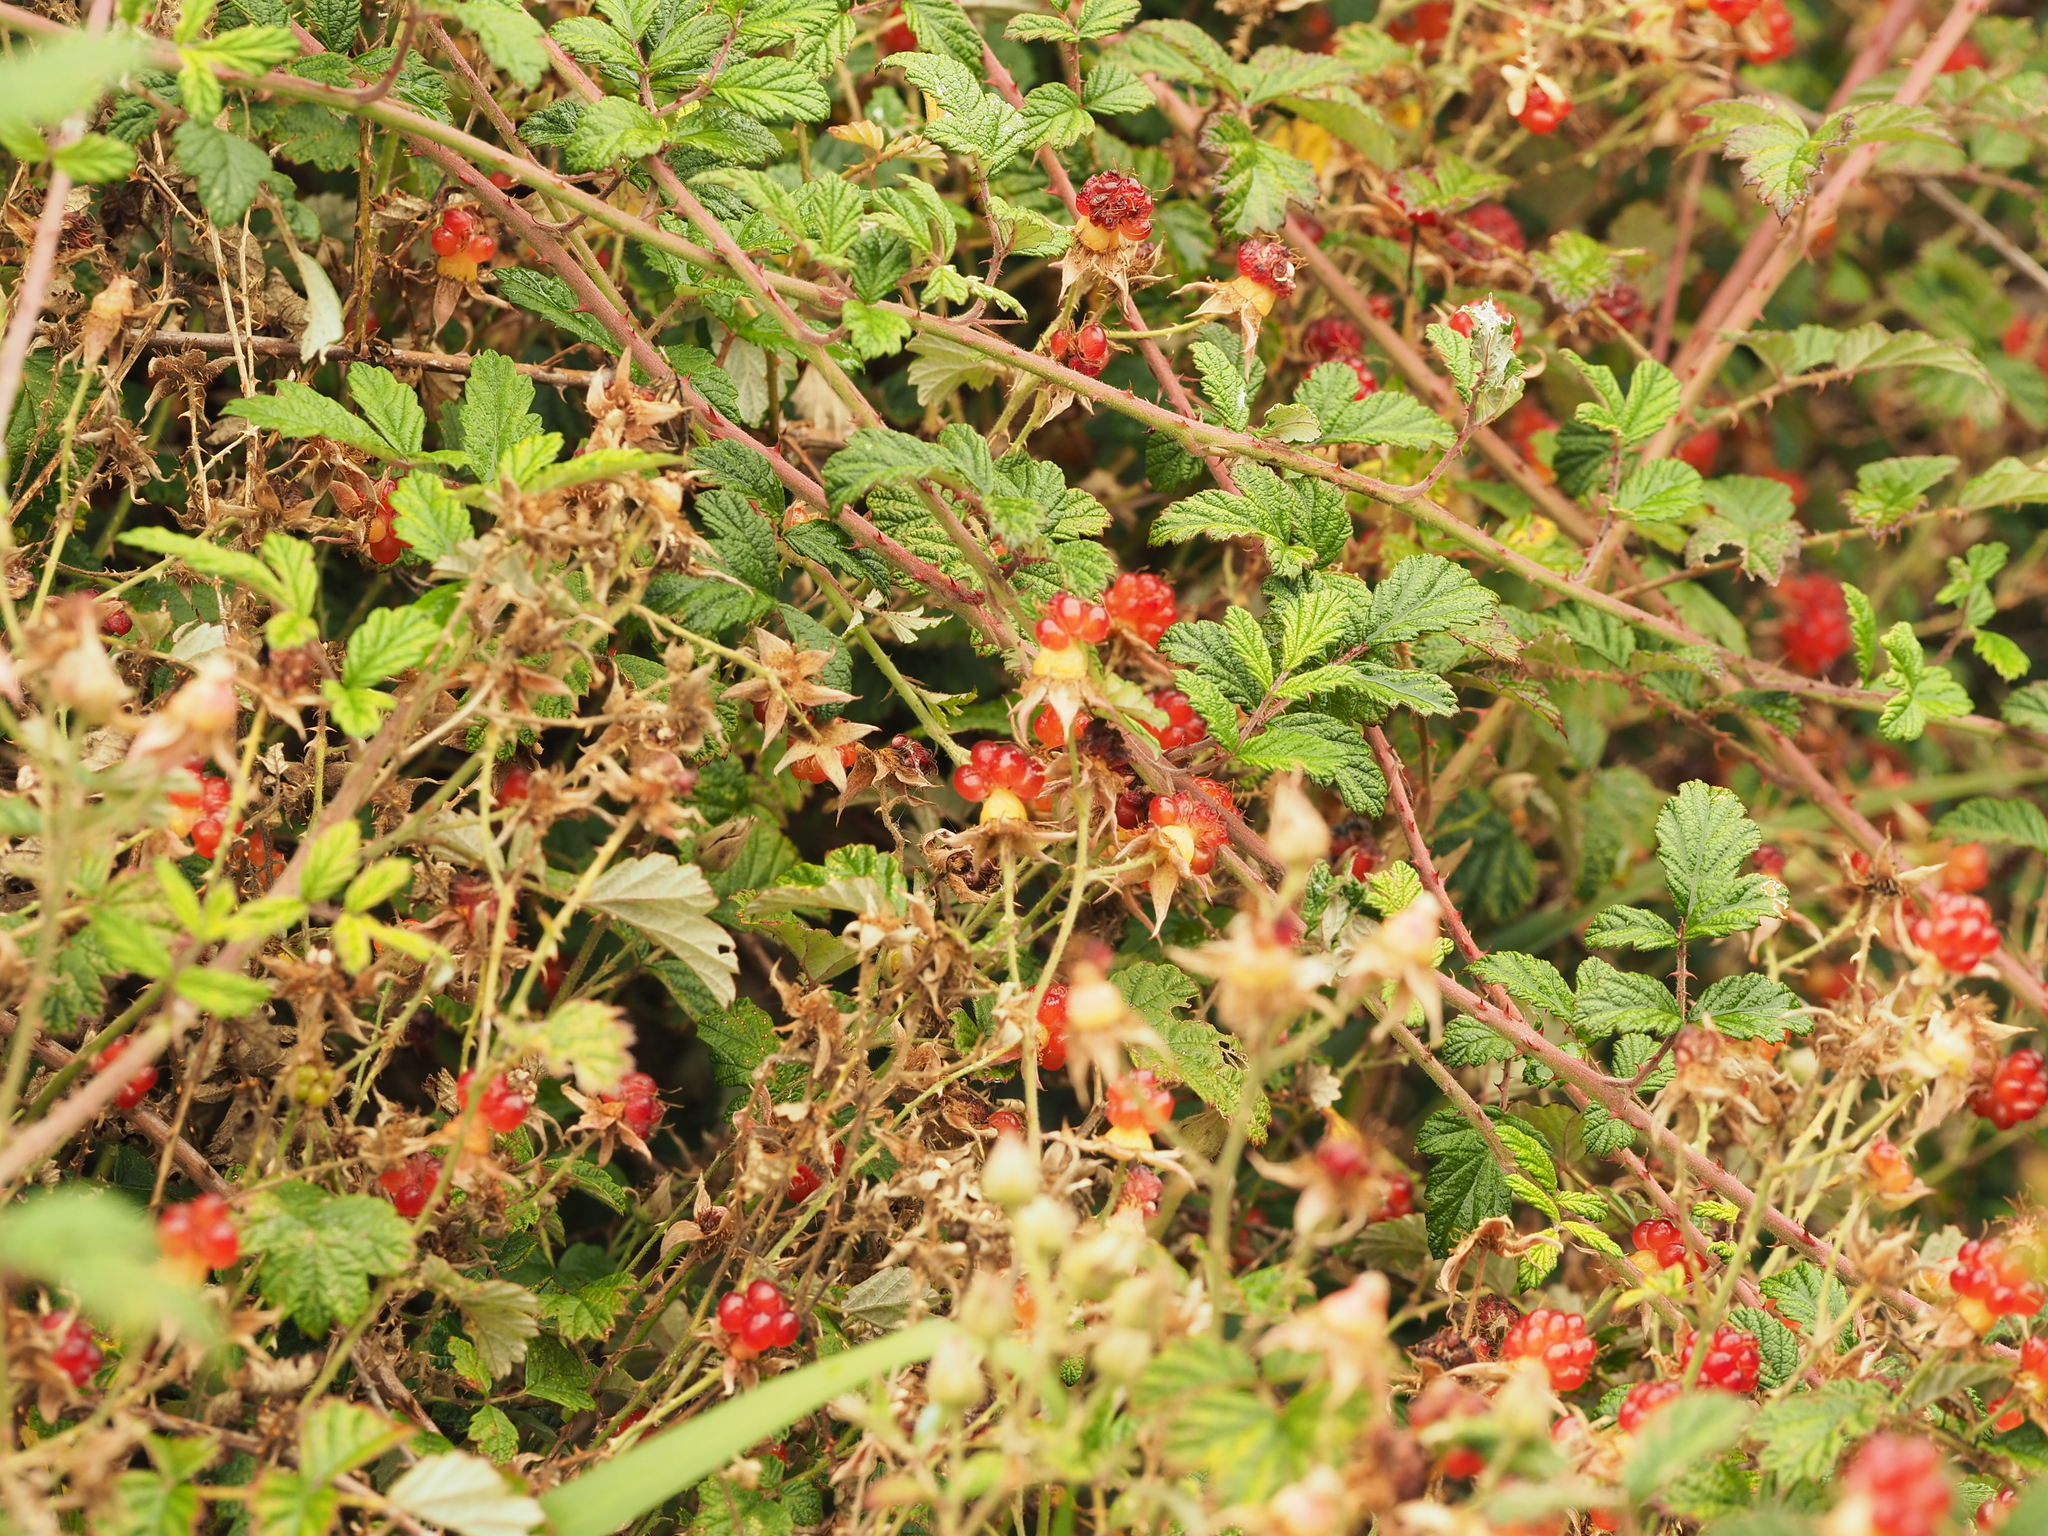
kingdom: Plantae
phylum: Tracheophyta
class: Magnoliopsida
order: Rosales
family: Rosaceae
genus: Rubus
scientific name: Rubus parvifolius
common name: Threeleaf blackberry
